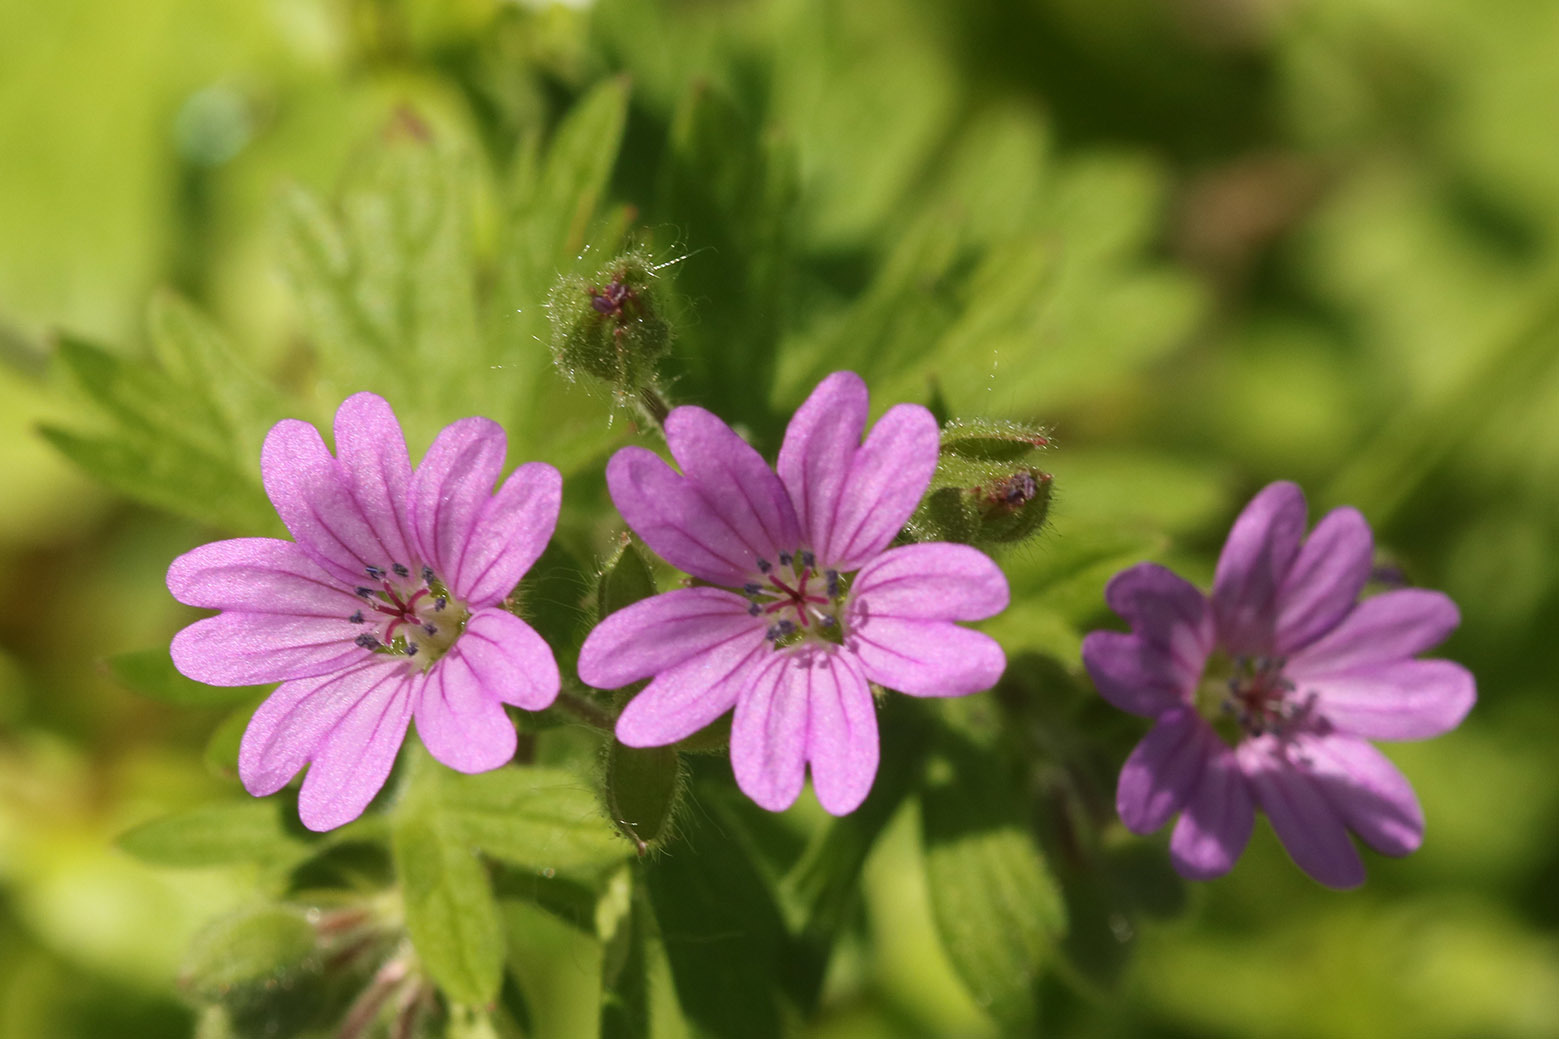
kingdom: Plantae
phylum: Tracheophyta
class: Magnoliopsida
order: Geraniales
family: Geraniaceae
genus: Geranium
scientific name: Geranium molle
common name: Dove's-foot crane's-bill
